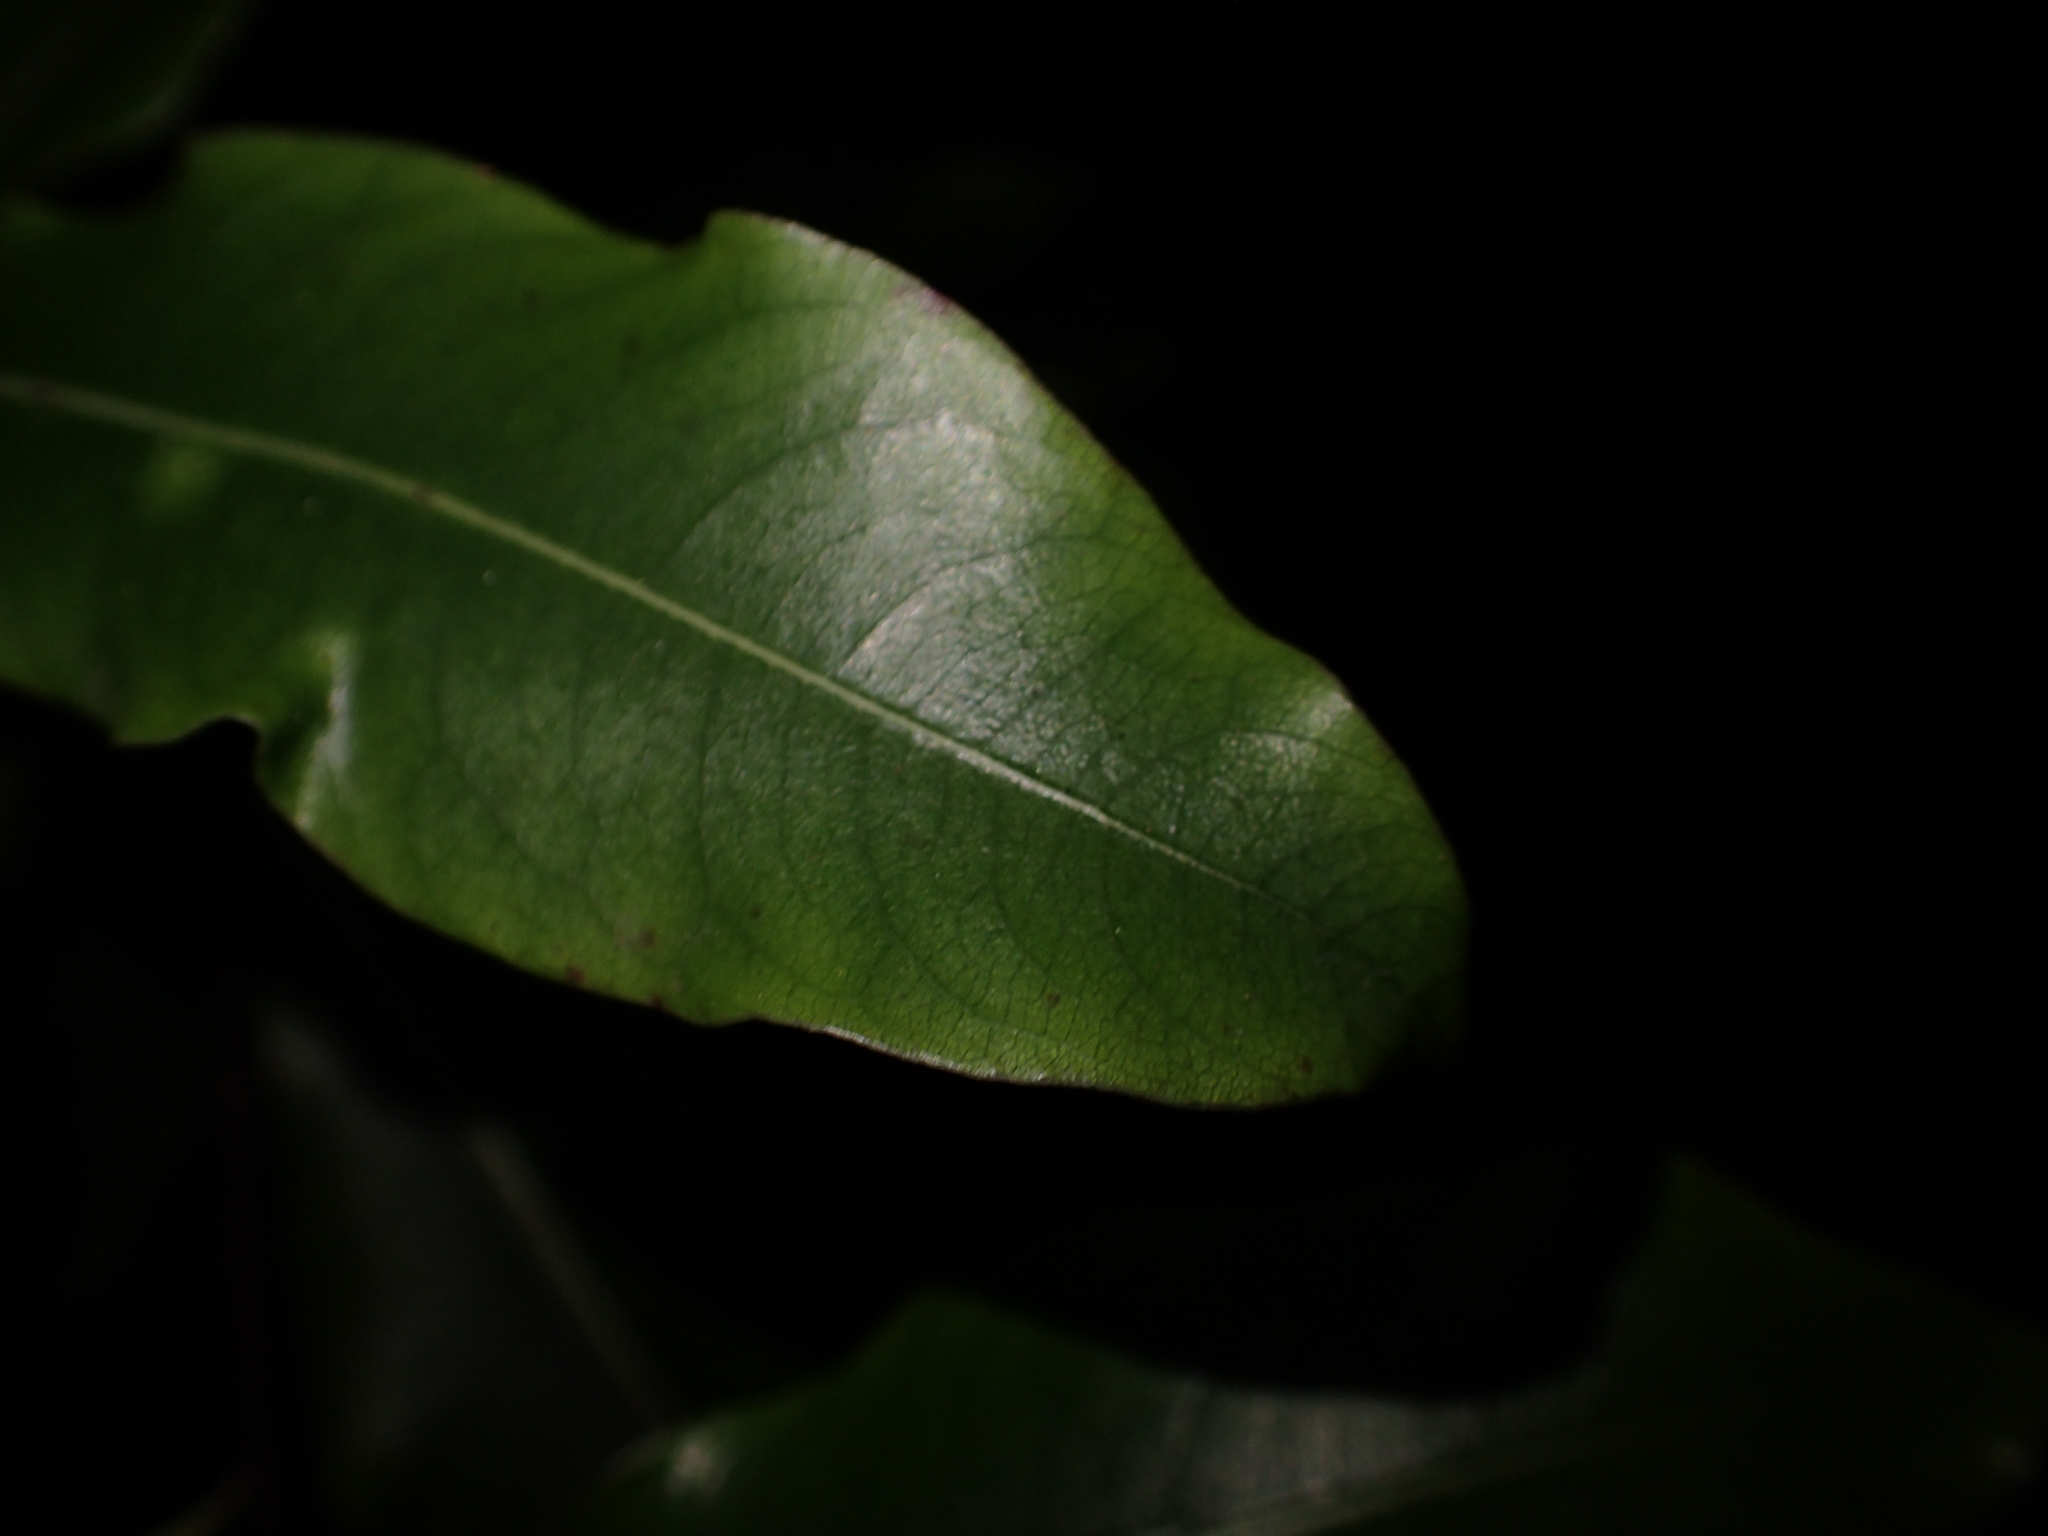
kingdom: Plantae
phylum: Tracheophyta
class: Magnoliopsida
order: Apiales
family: Pittosporaceae
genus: Pittosporum
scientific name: Pittosporum eugenioides
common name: Lemonwood
